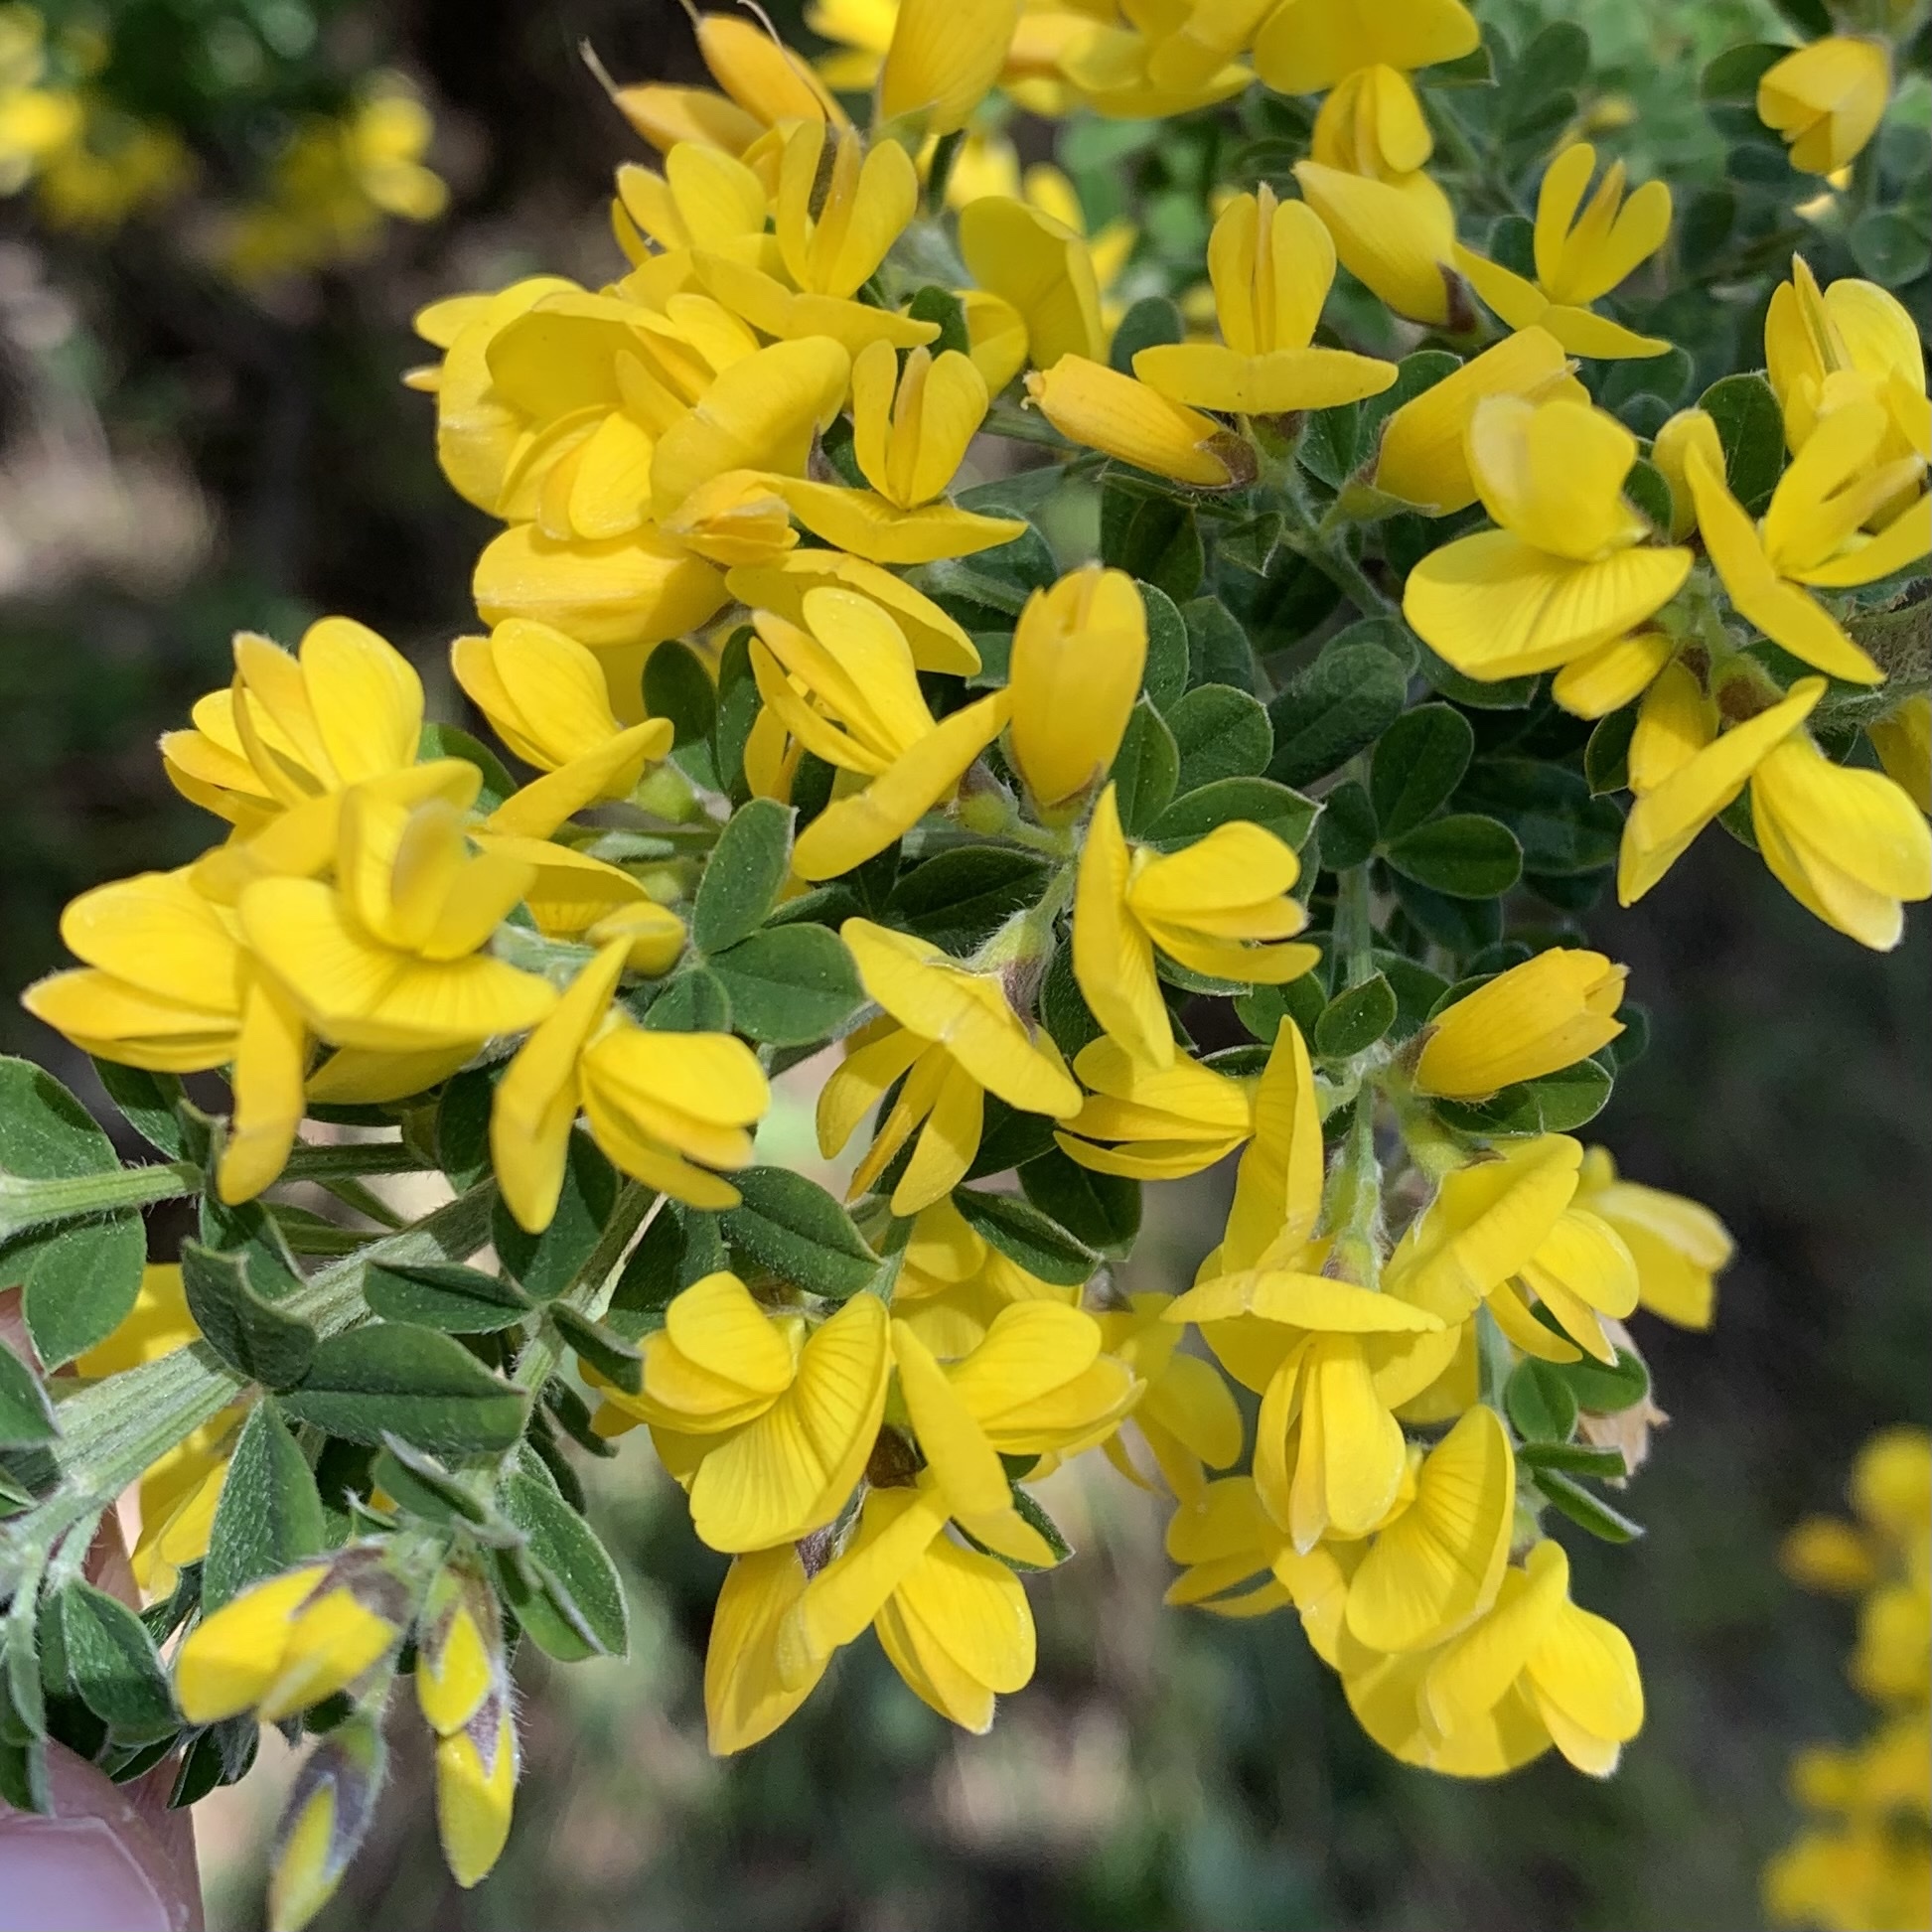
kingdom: Plantae
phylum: Tracheophyta
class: Magnoliopsida
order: Fabales
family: Fabaceae
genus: Genista
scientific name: Genista monspessulana
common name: Montpellier broom
